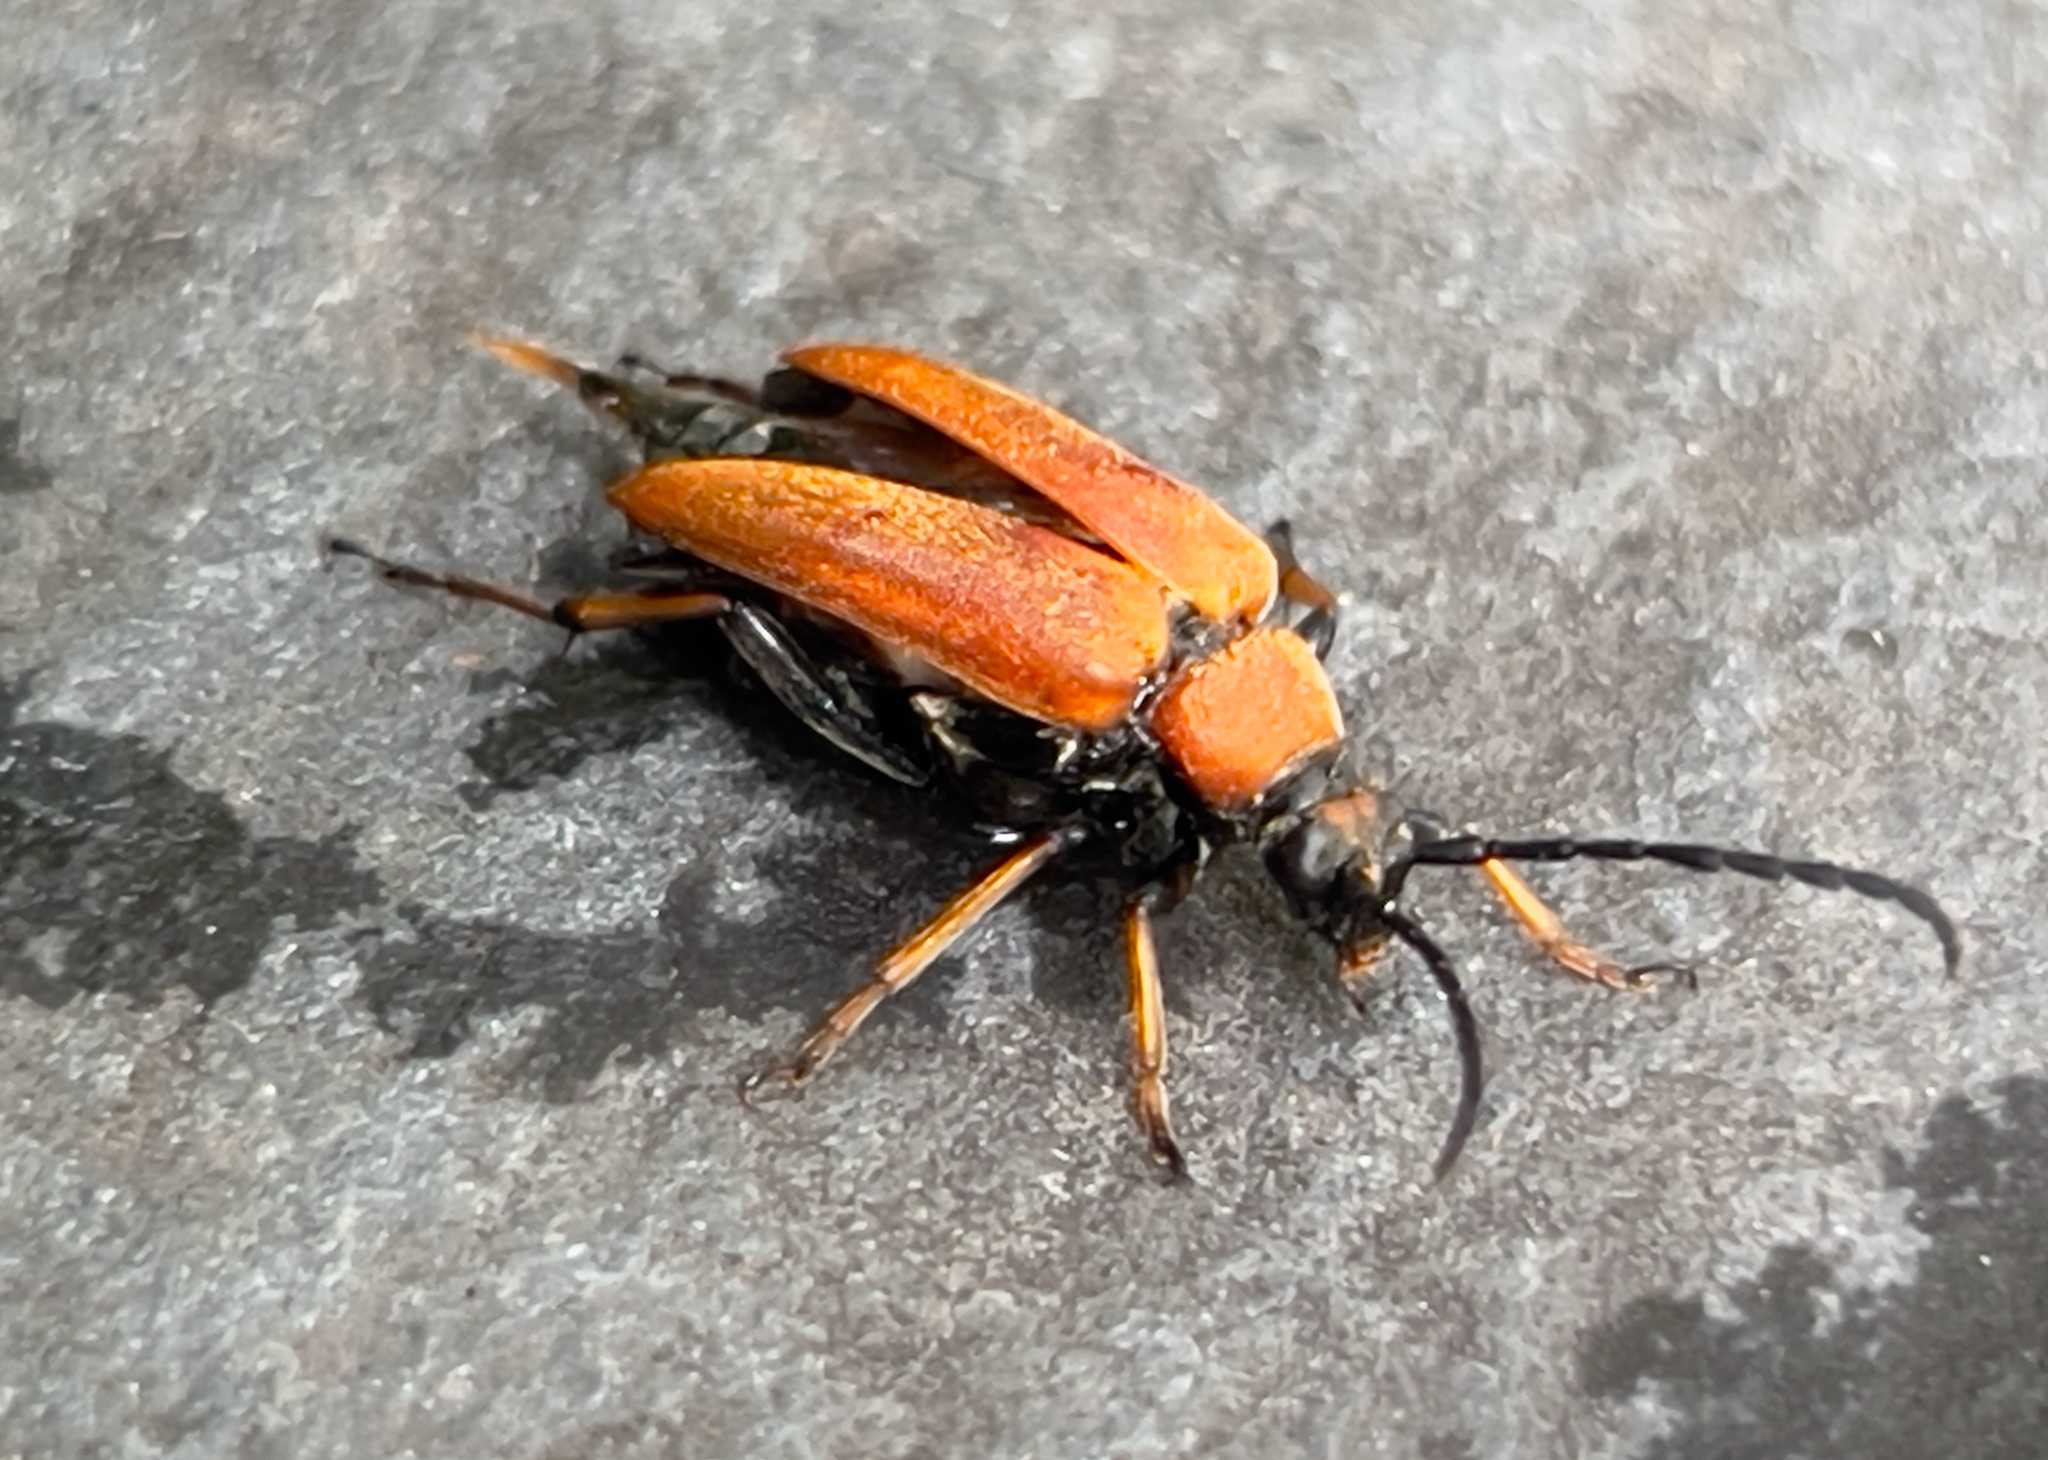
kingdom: Animalia
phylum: Arthropoda
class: Insecta
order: Coleoptera
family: Cerambycidae
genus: Stictoleptura
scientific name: Stictoleptura rubra
